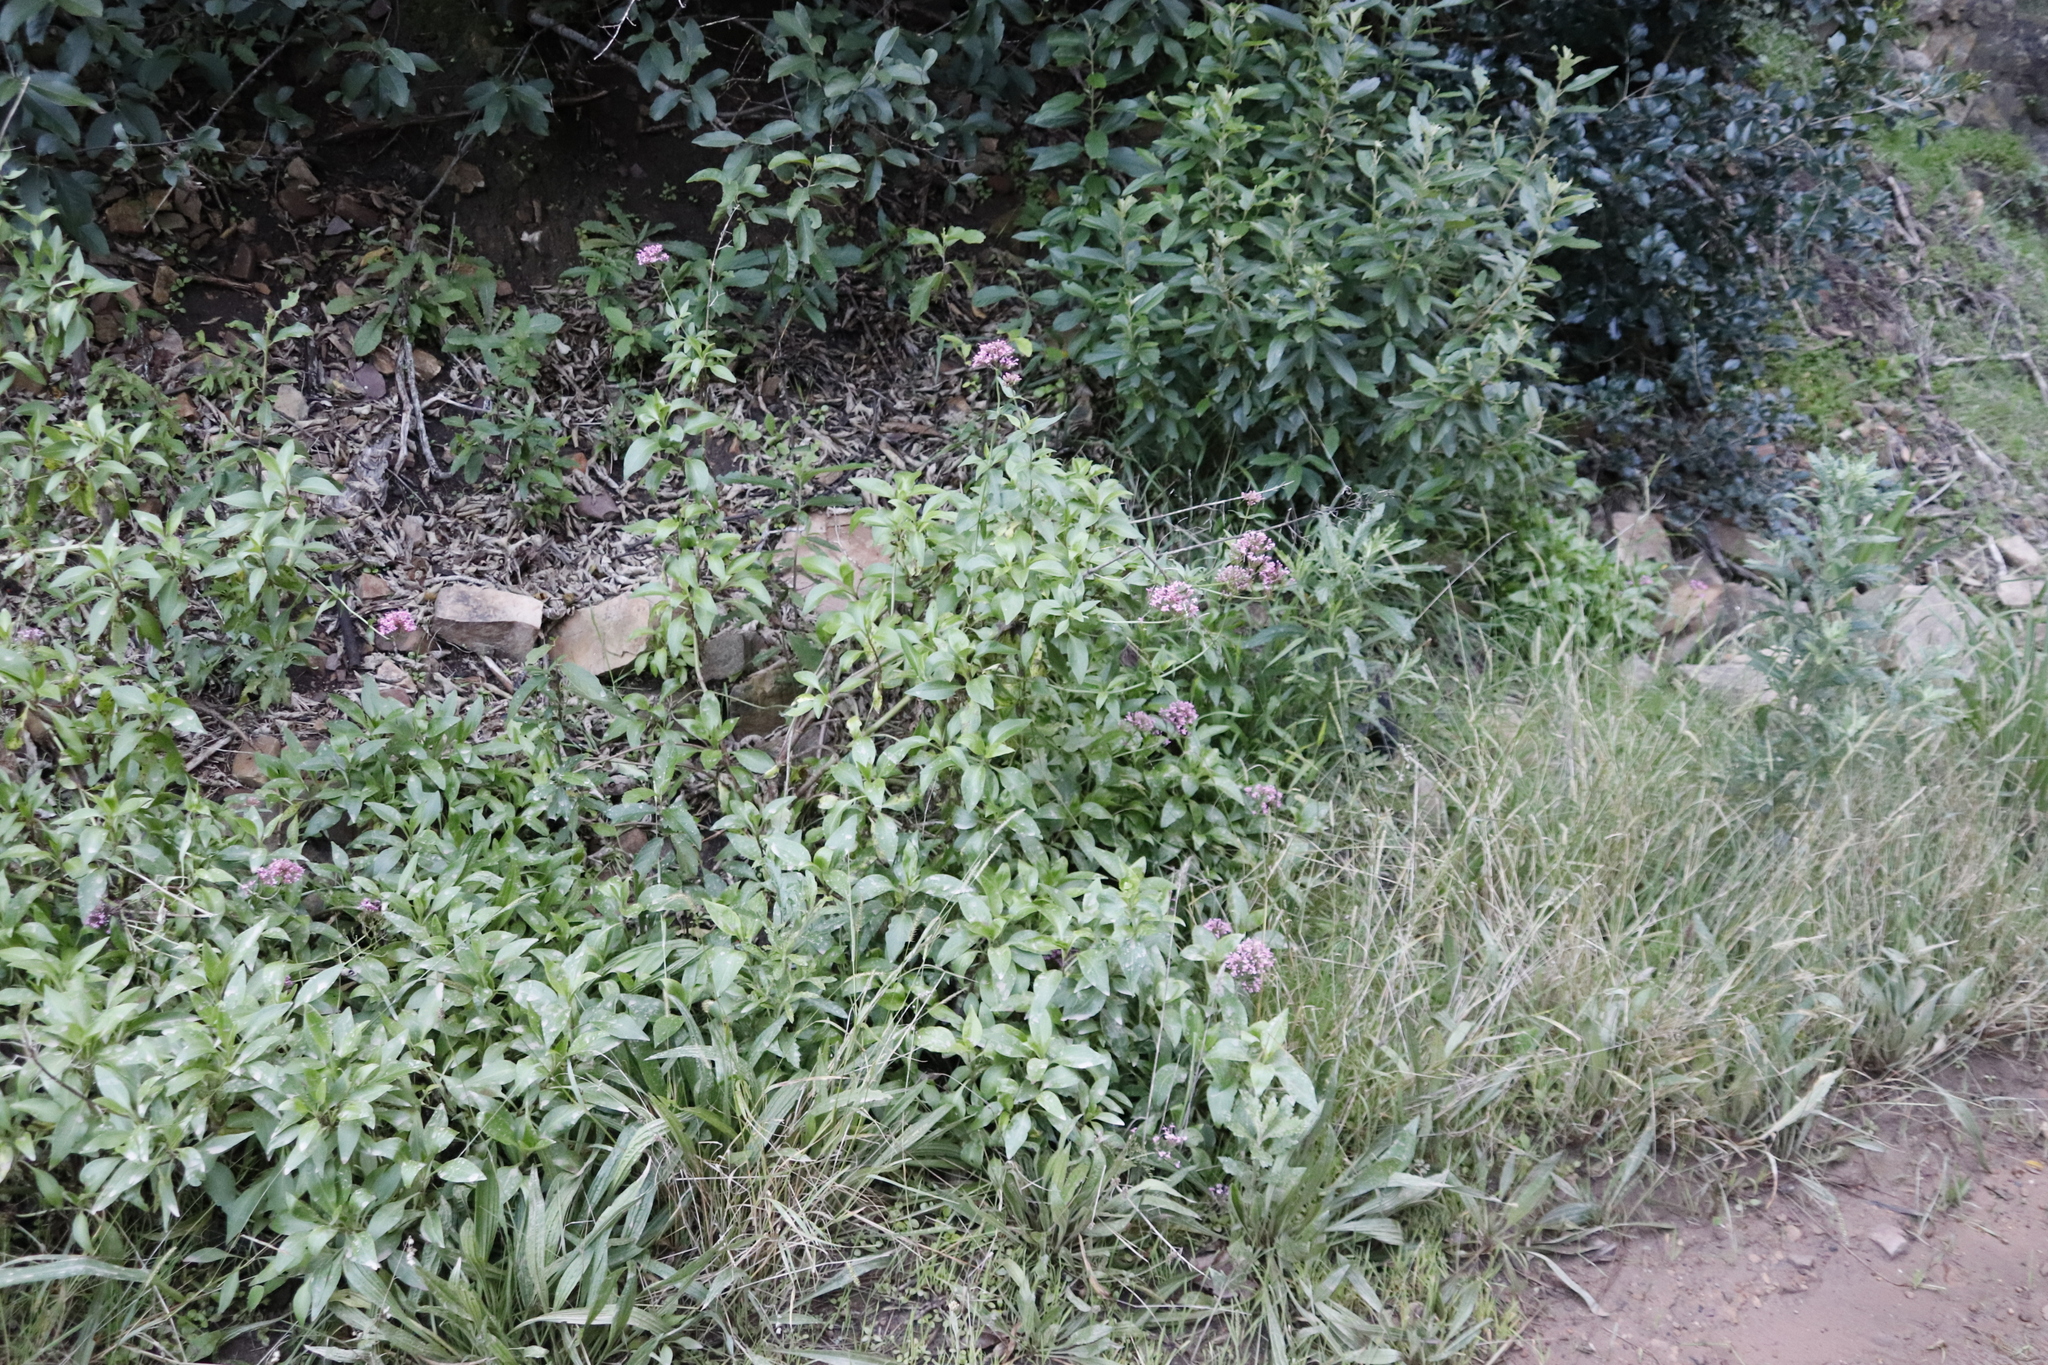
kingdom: Plantae
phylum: Tracheophyta
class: Magnoliopsida
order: Dipsacales
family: Caprifoliaceae
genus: Centranthus
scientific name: Centranthus ruber
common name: Red valerian
